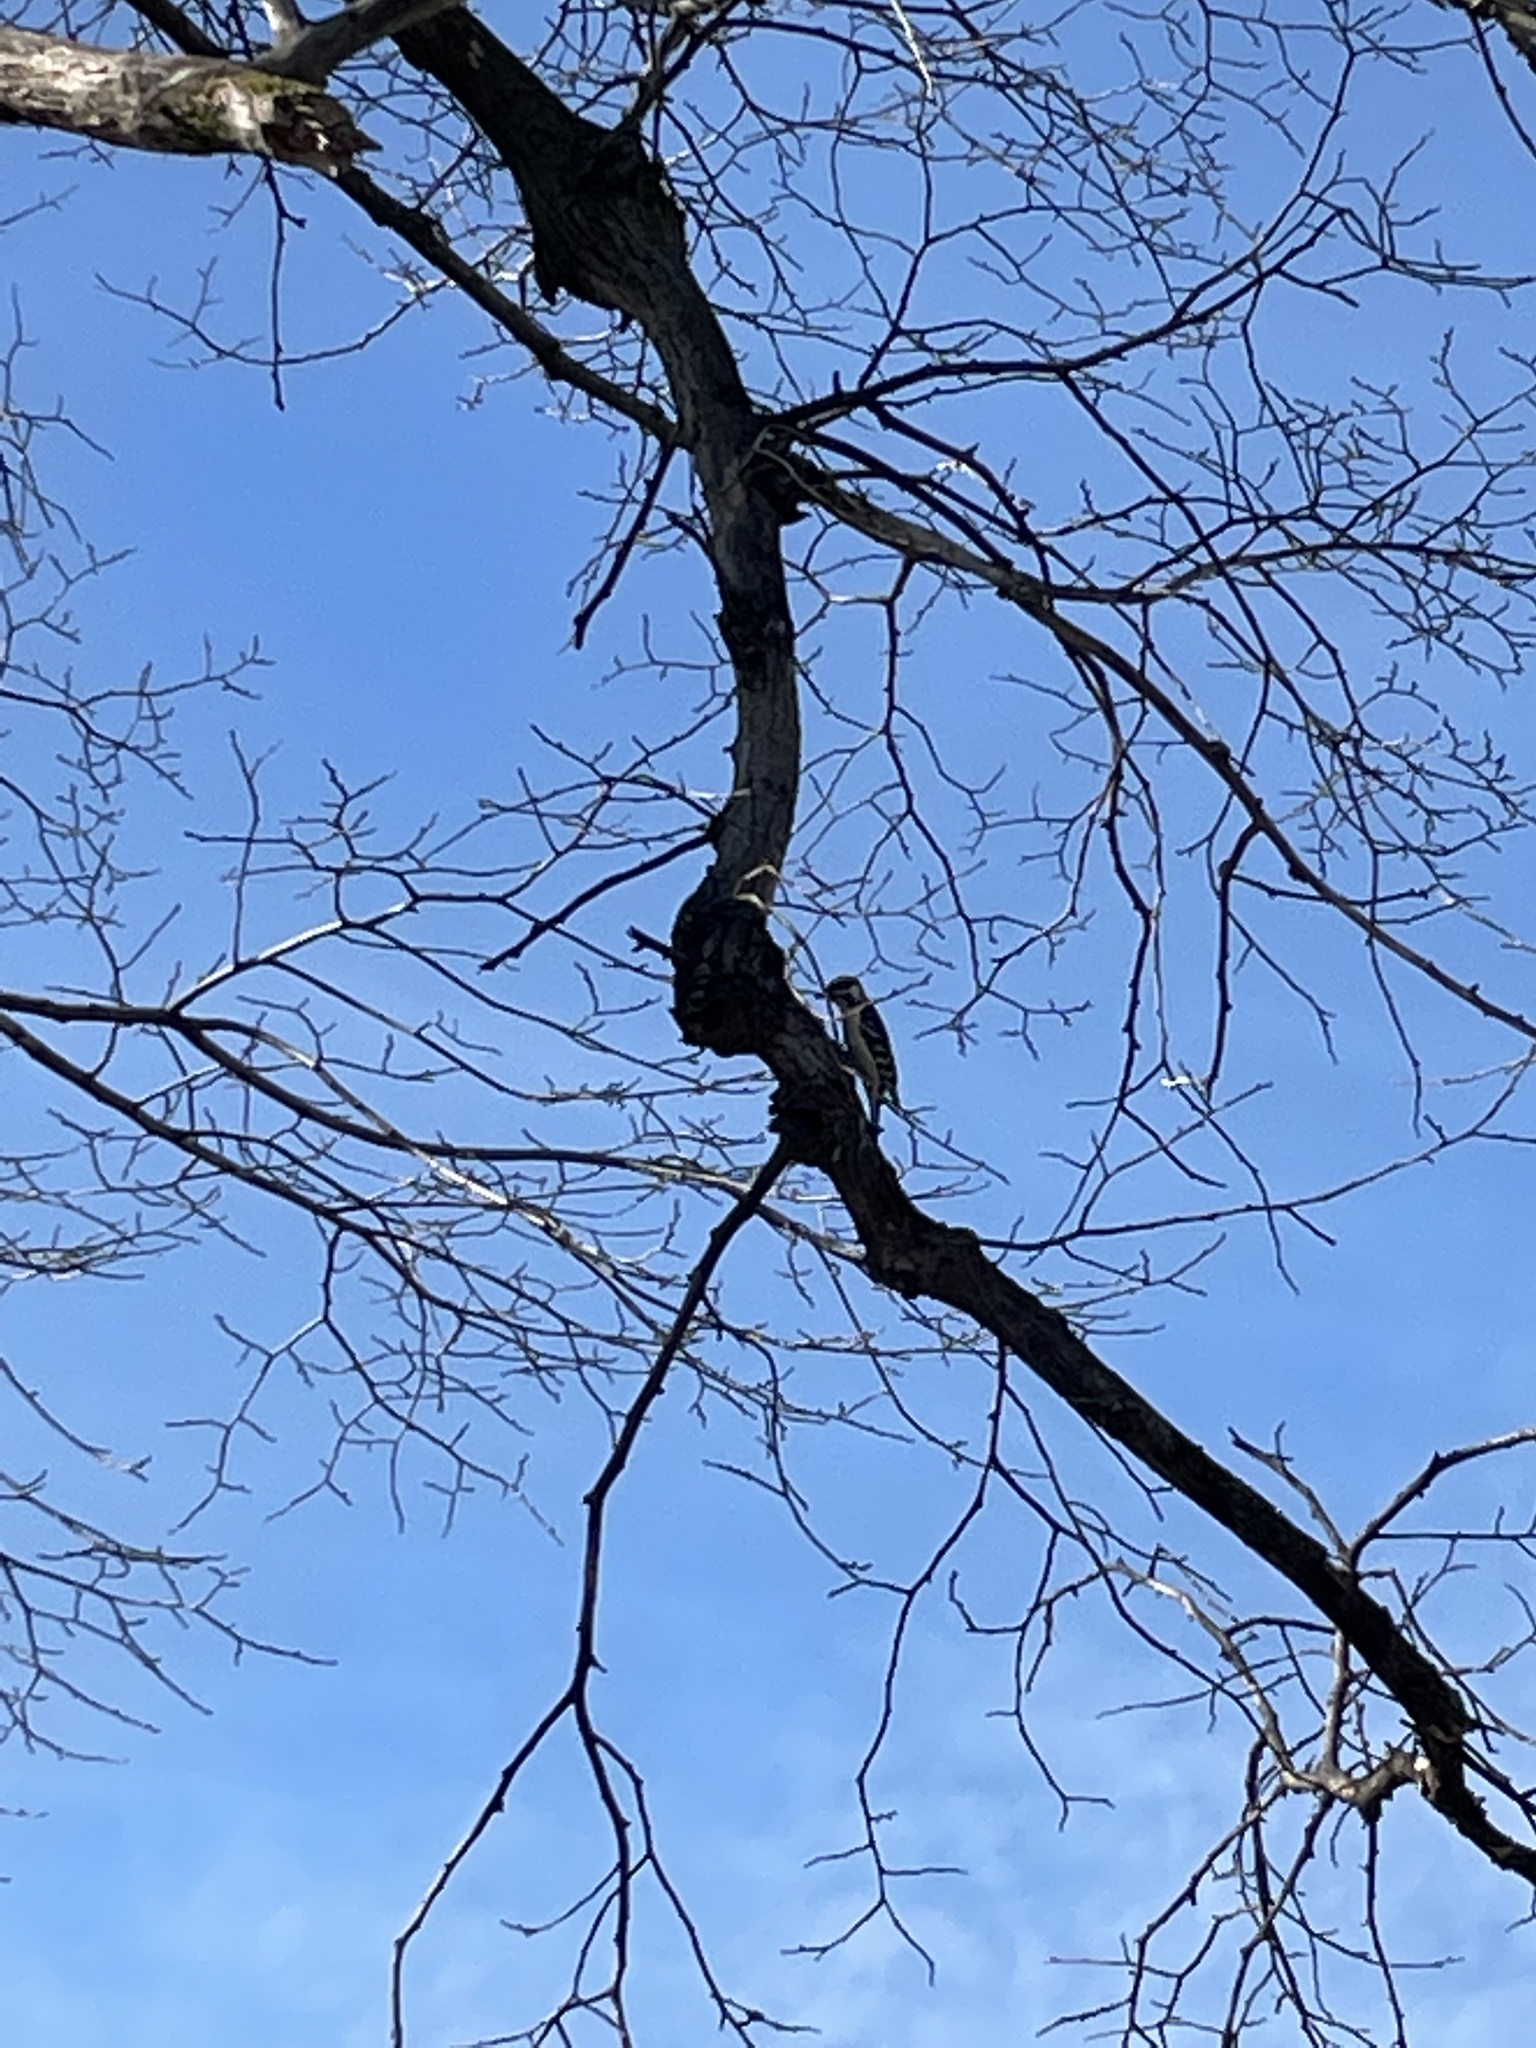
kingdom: Animalia
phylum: Chordata
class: Aves
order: Piciformes
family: Picidae
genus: Dryobates
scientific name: Dryobates pubescens
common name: Downy woodpecker
